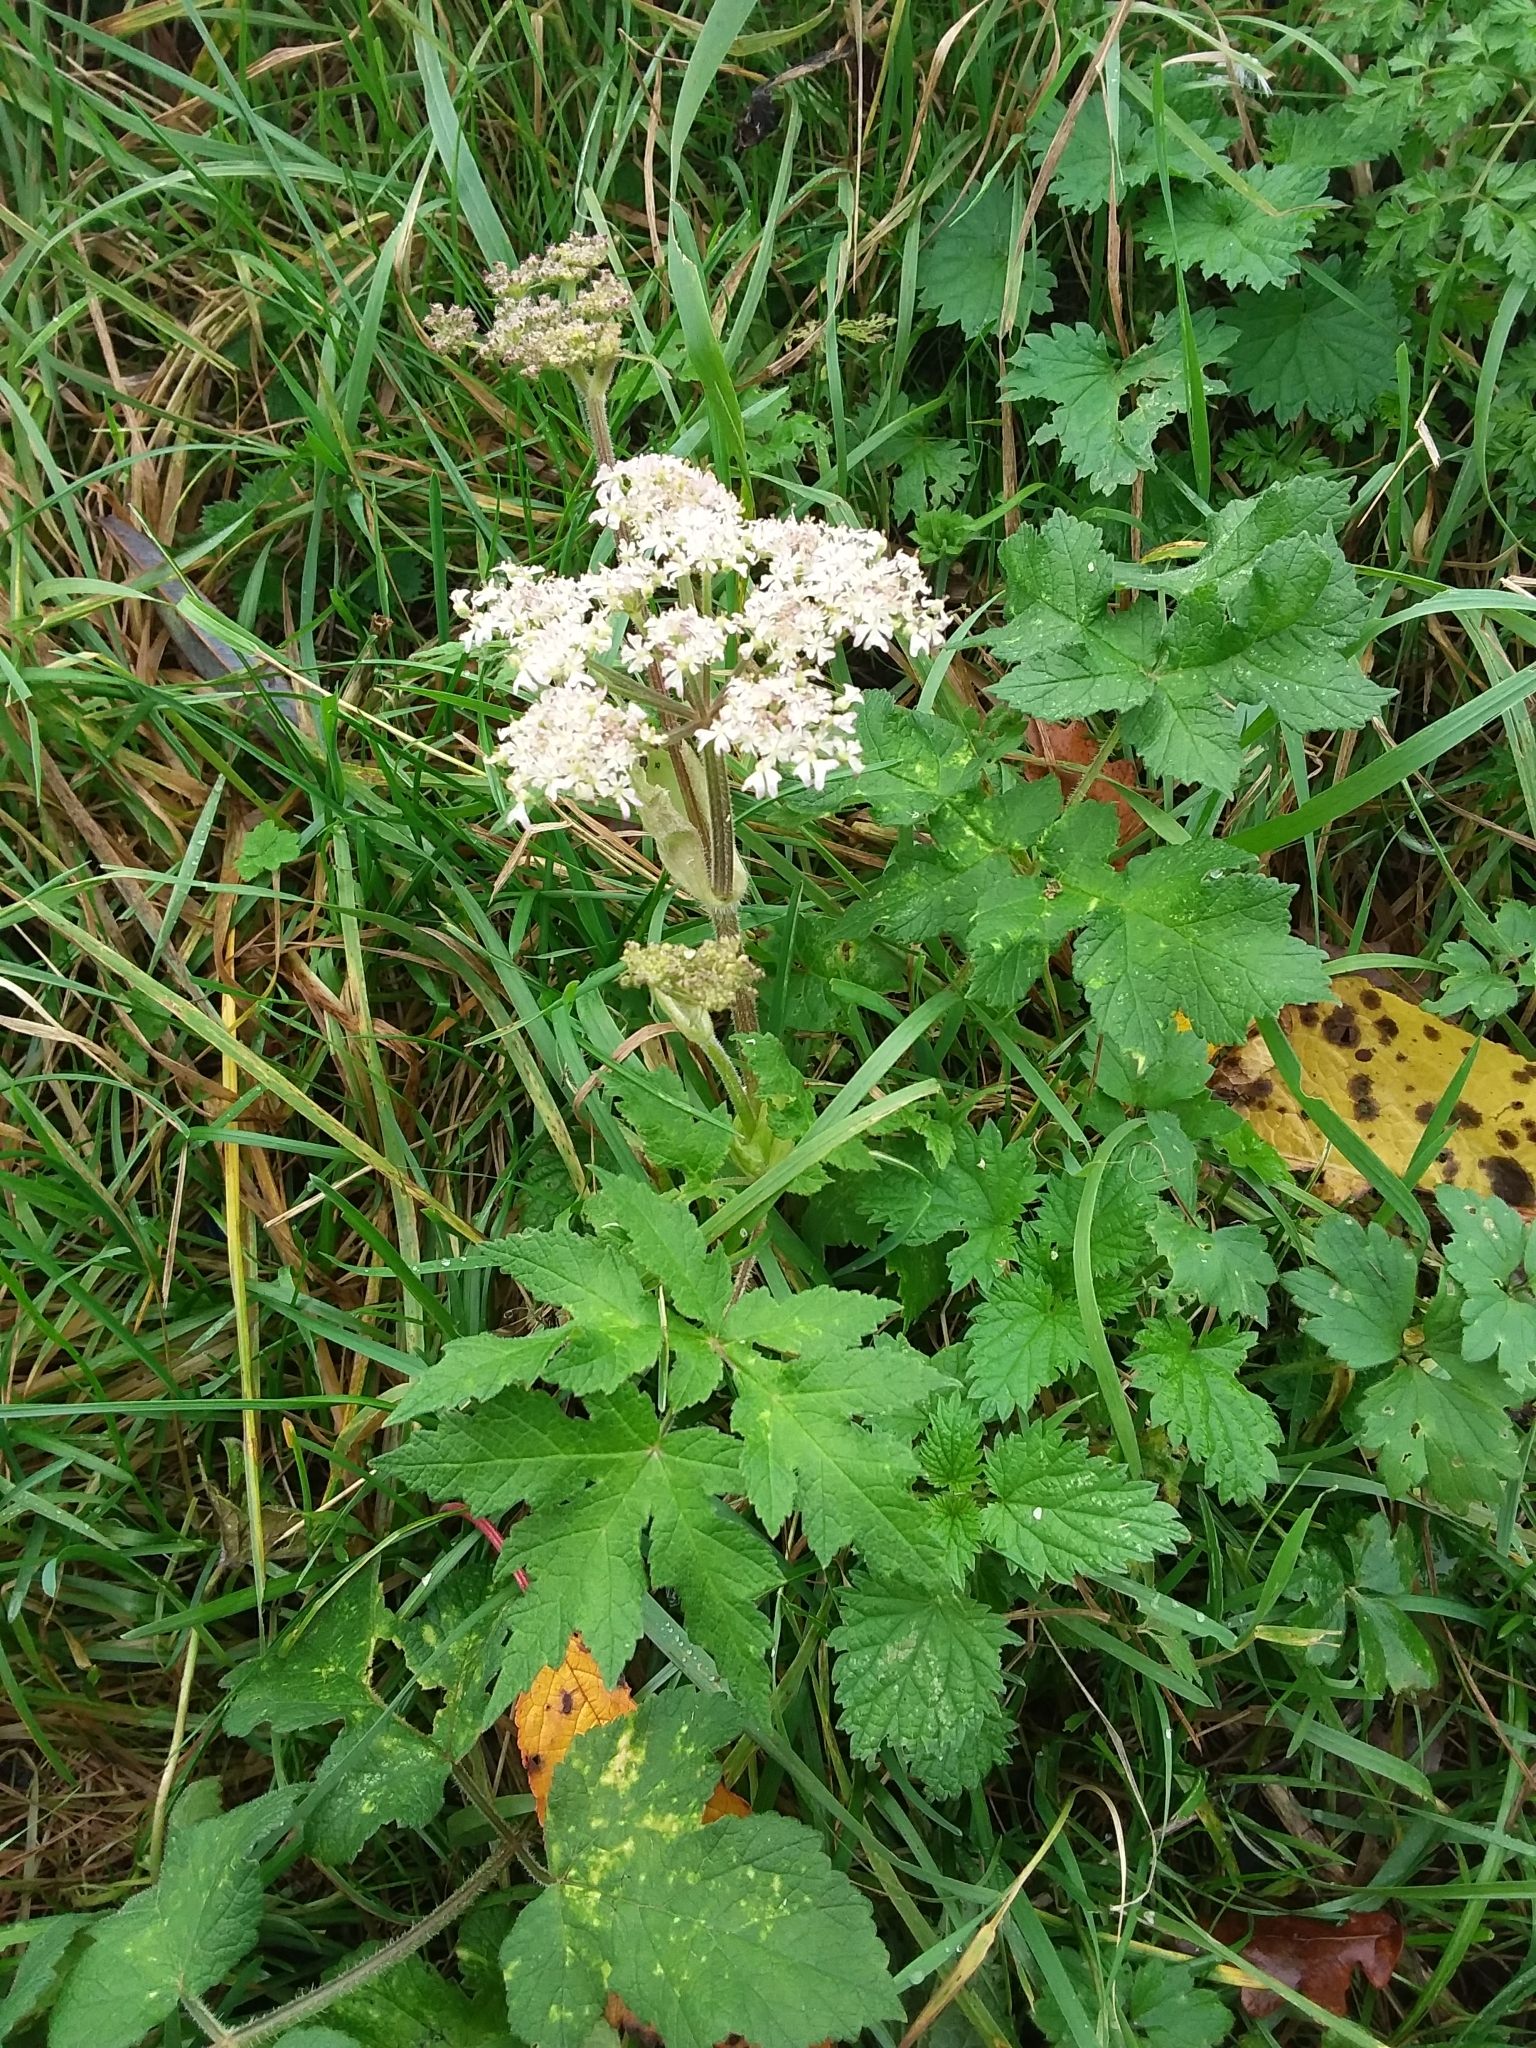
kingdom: Plantae
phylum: Tracheophyta
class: Magnoliopsida
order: Apiales
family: Apiaceae
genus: Heracleum
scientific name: Heracleum sphondylium
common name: Hogweed
